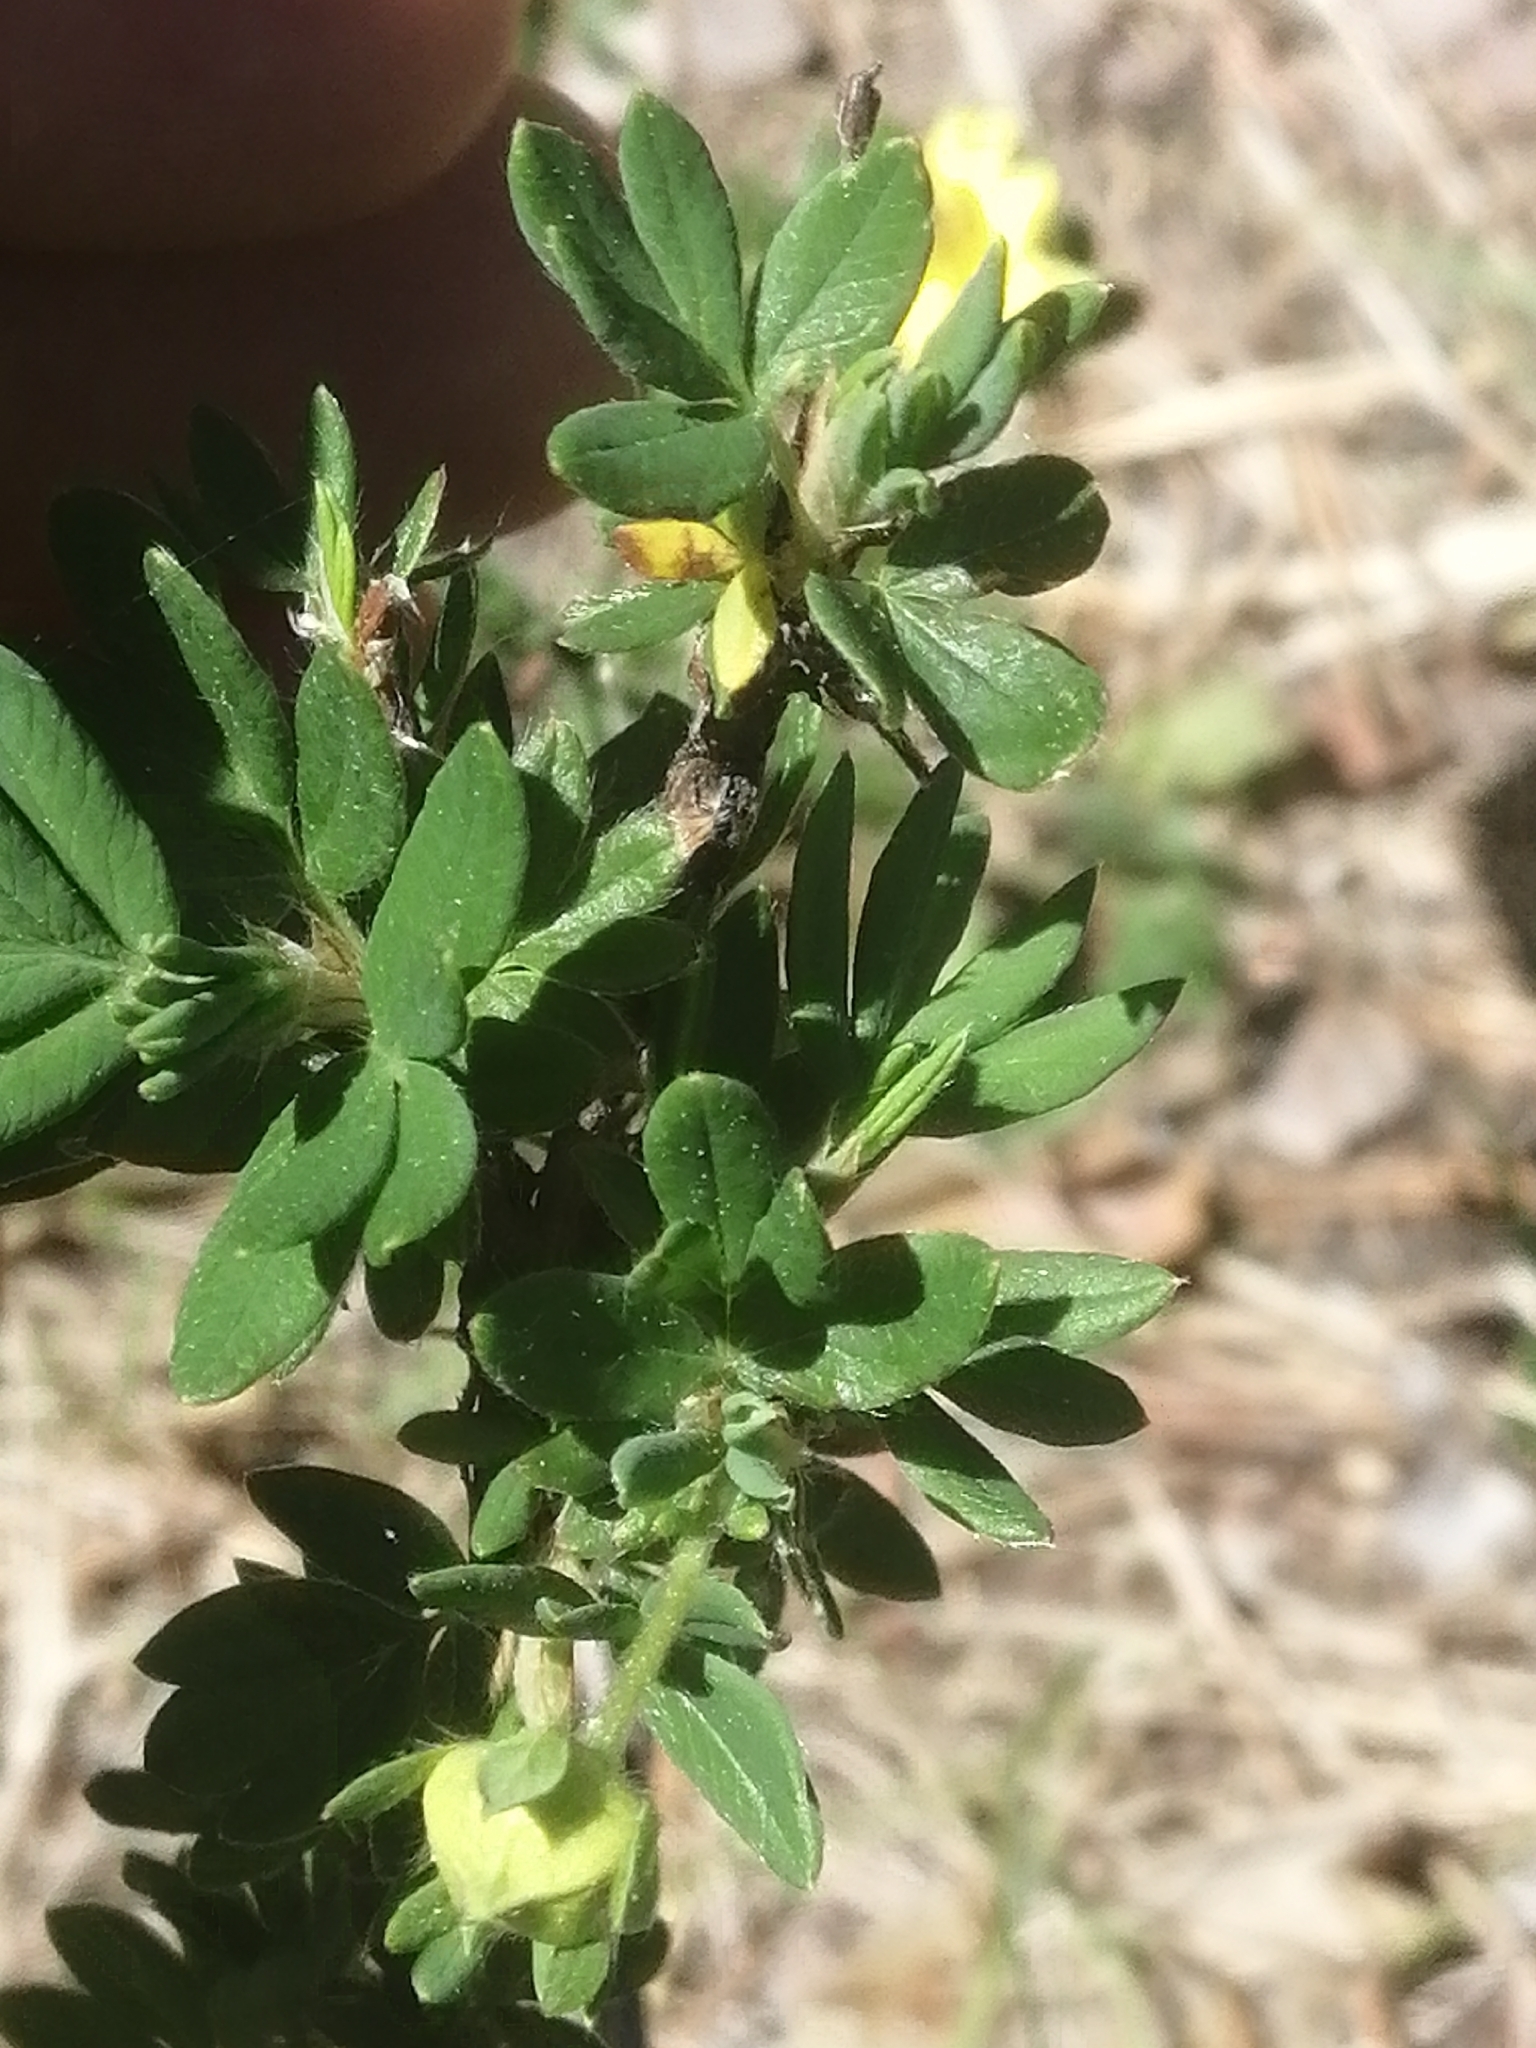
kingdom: Plantae
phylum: Tracheophyta
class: Magnoliopsida
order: Rosales
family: Rosaceae
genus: Dasiphora
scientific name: Dasiphora fruticosa
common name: Shrubby cinquefoil
